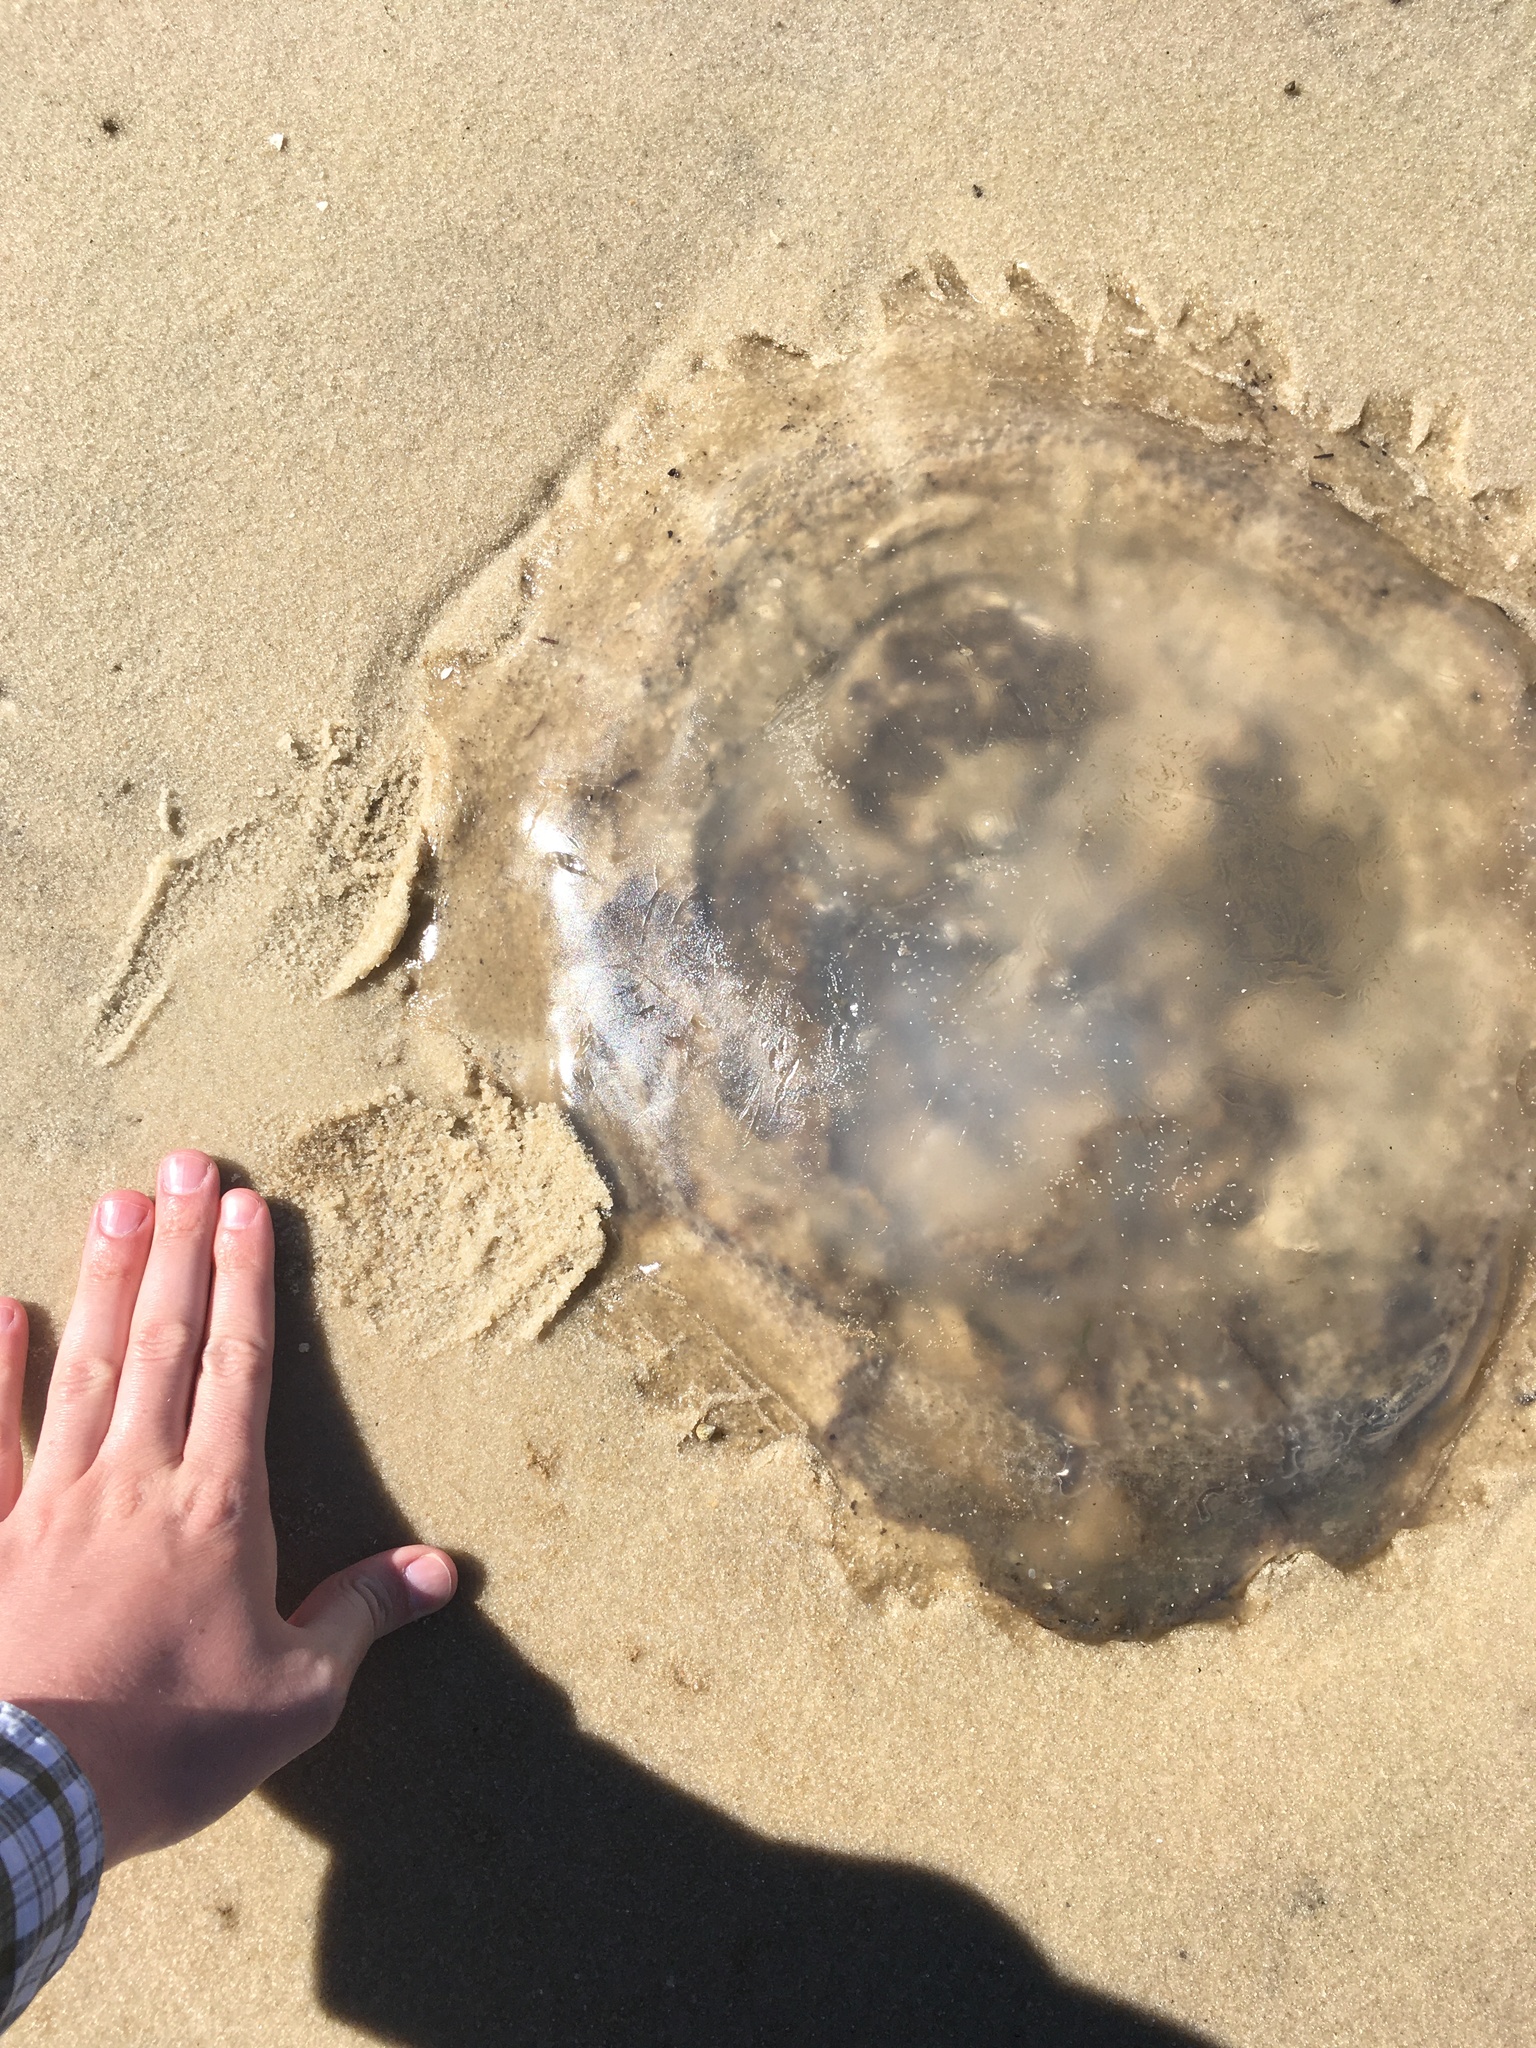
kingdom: Animalia
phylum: Cnidaria
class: Scyphozoa
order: Rhizostomeae
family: Rhizostomatidae
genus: Rhopilema
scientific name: Rhopilema verrilli
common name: Mushroom cap jellyfish
